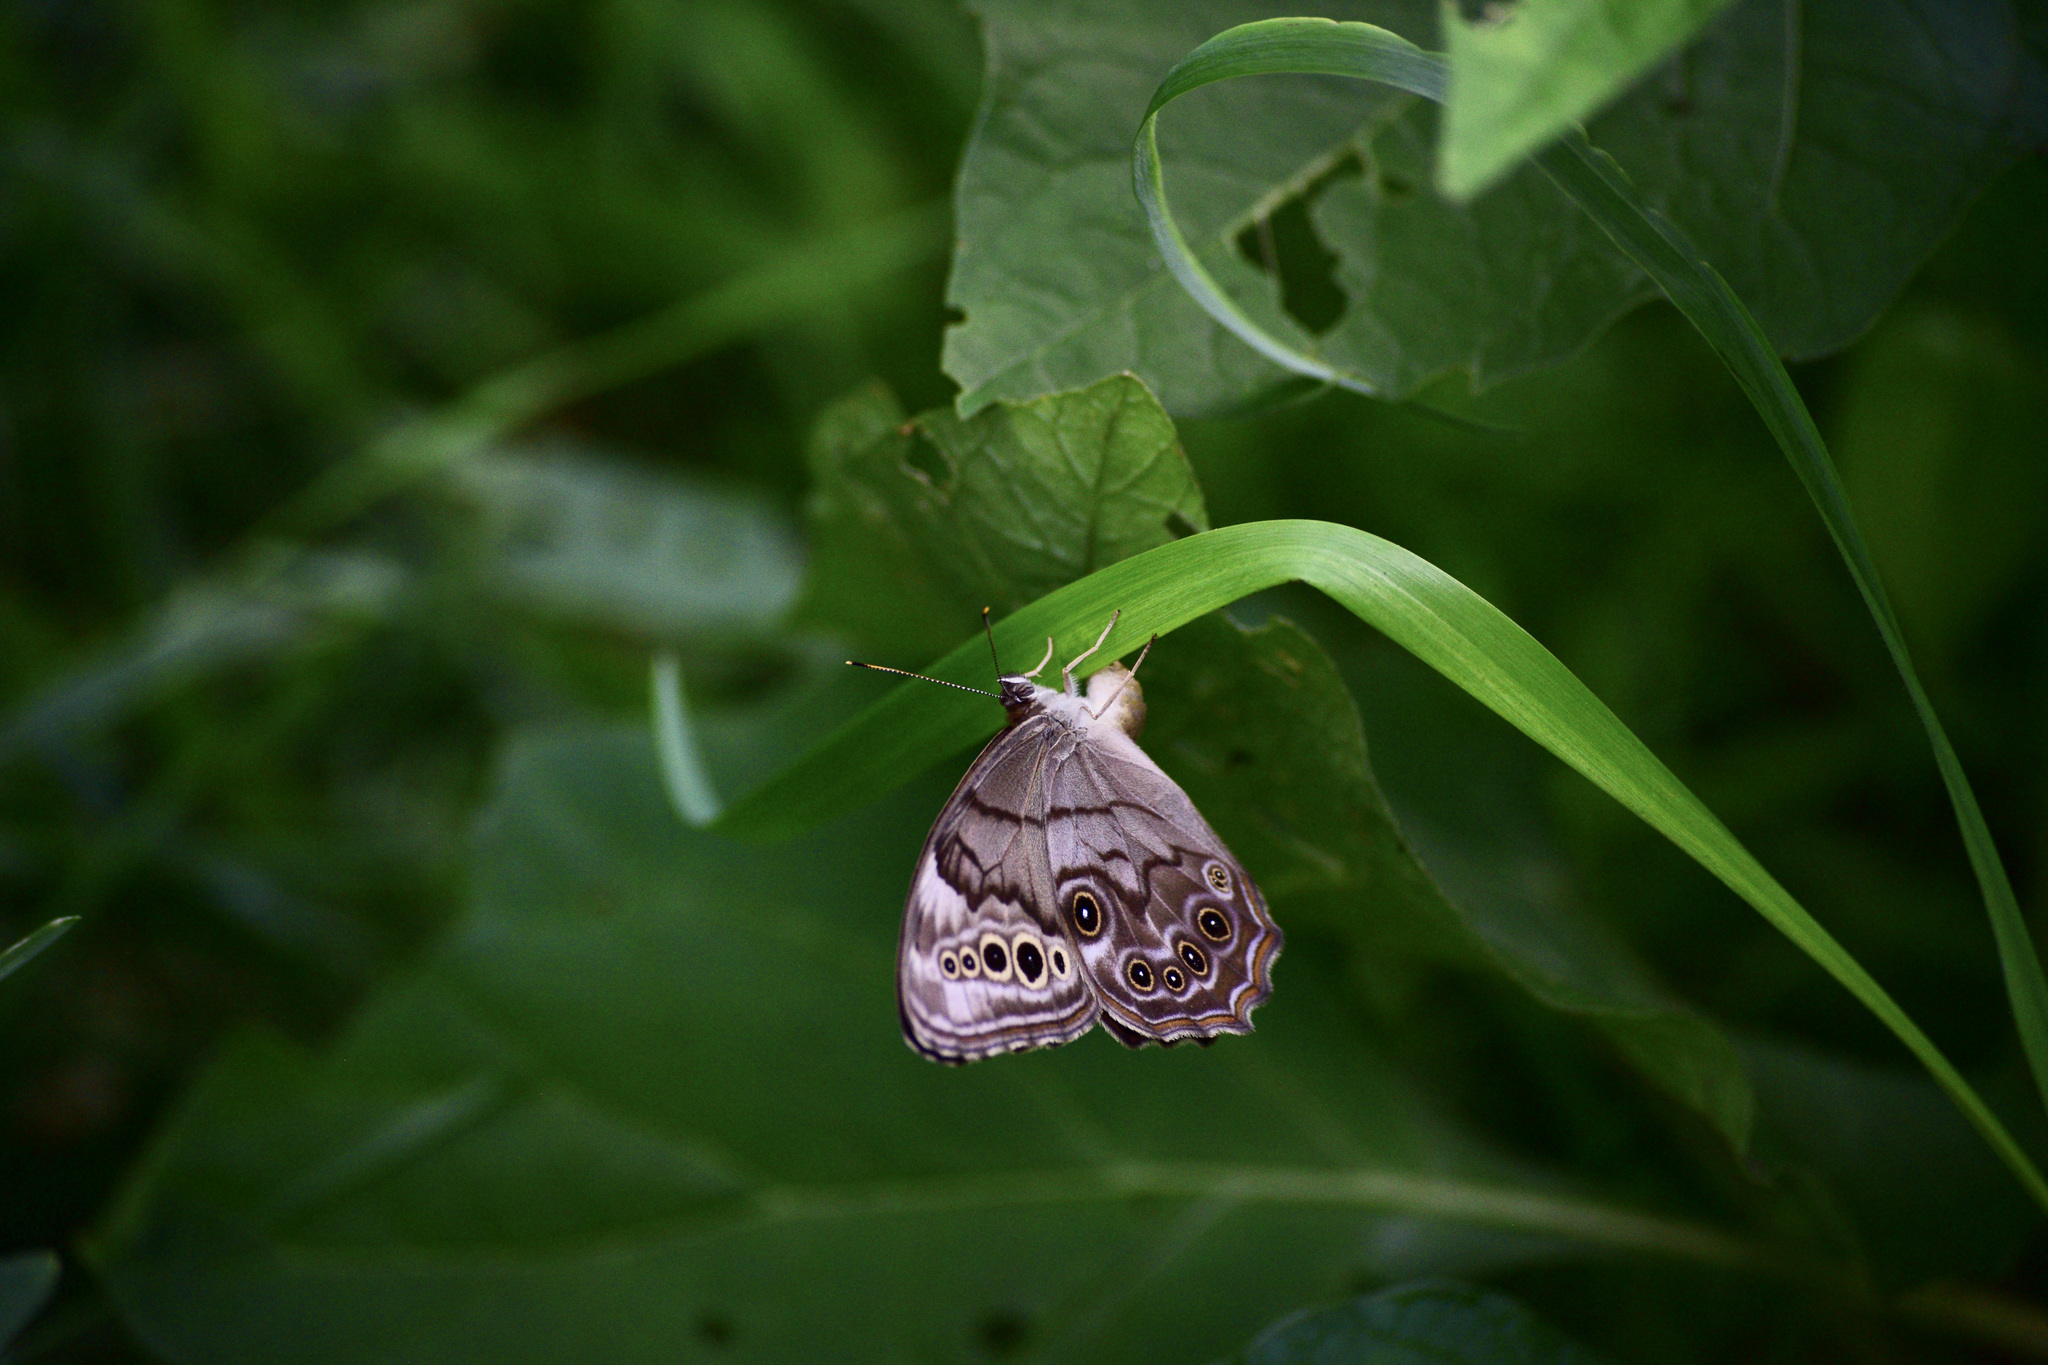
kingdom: Animalia
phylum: Arthropoda
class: Insecta
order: Lepidoptera
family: Nymphalidae
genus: Lethe
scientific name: Lethe anthedon
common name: Northern pearly-eye
